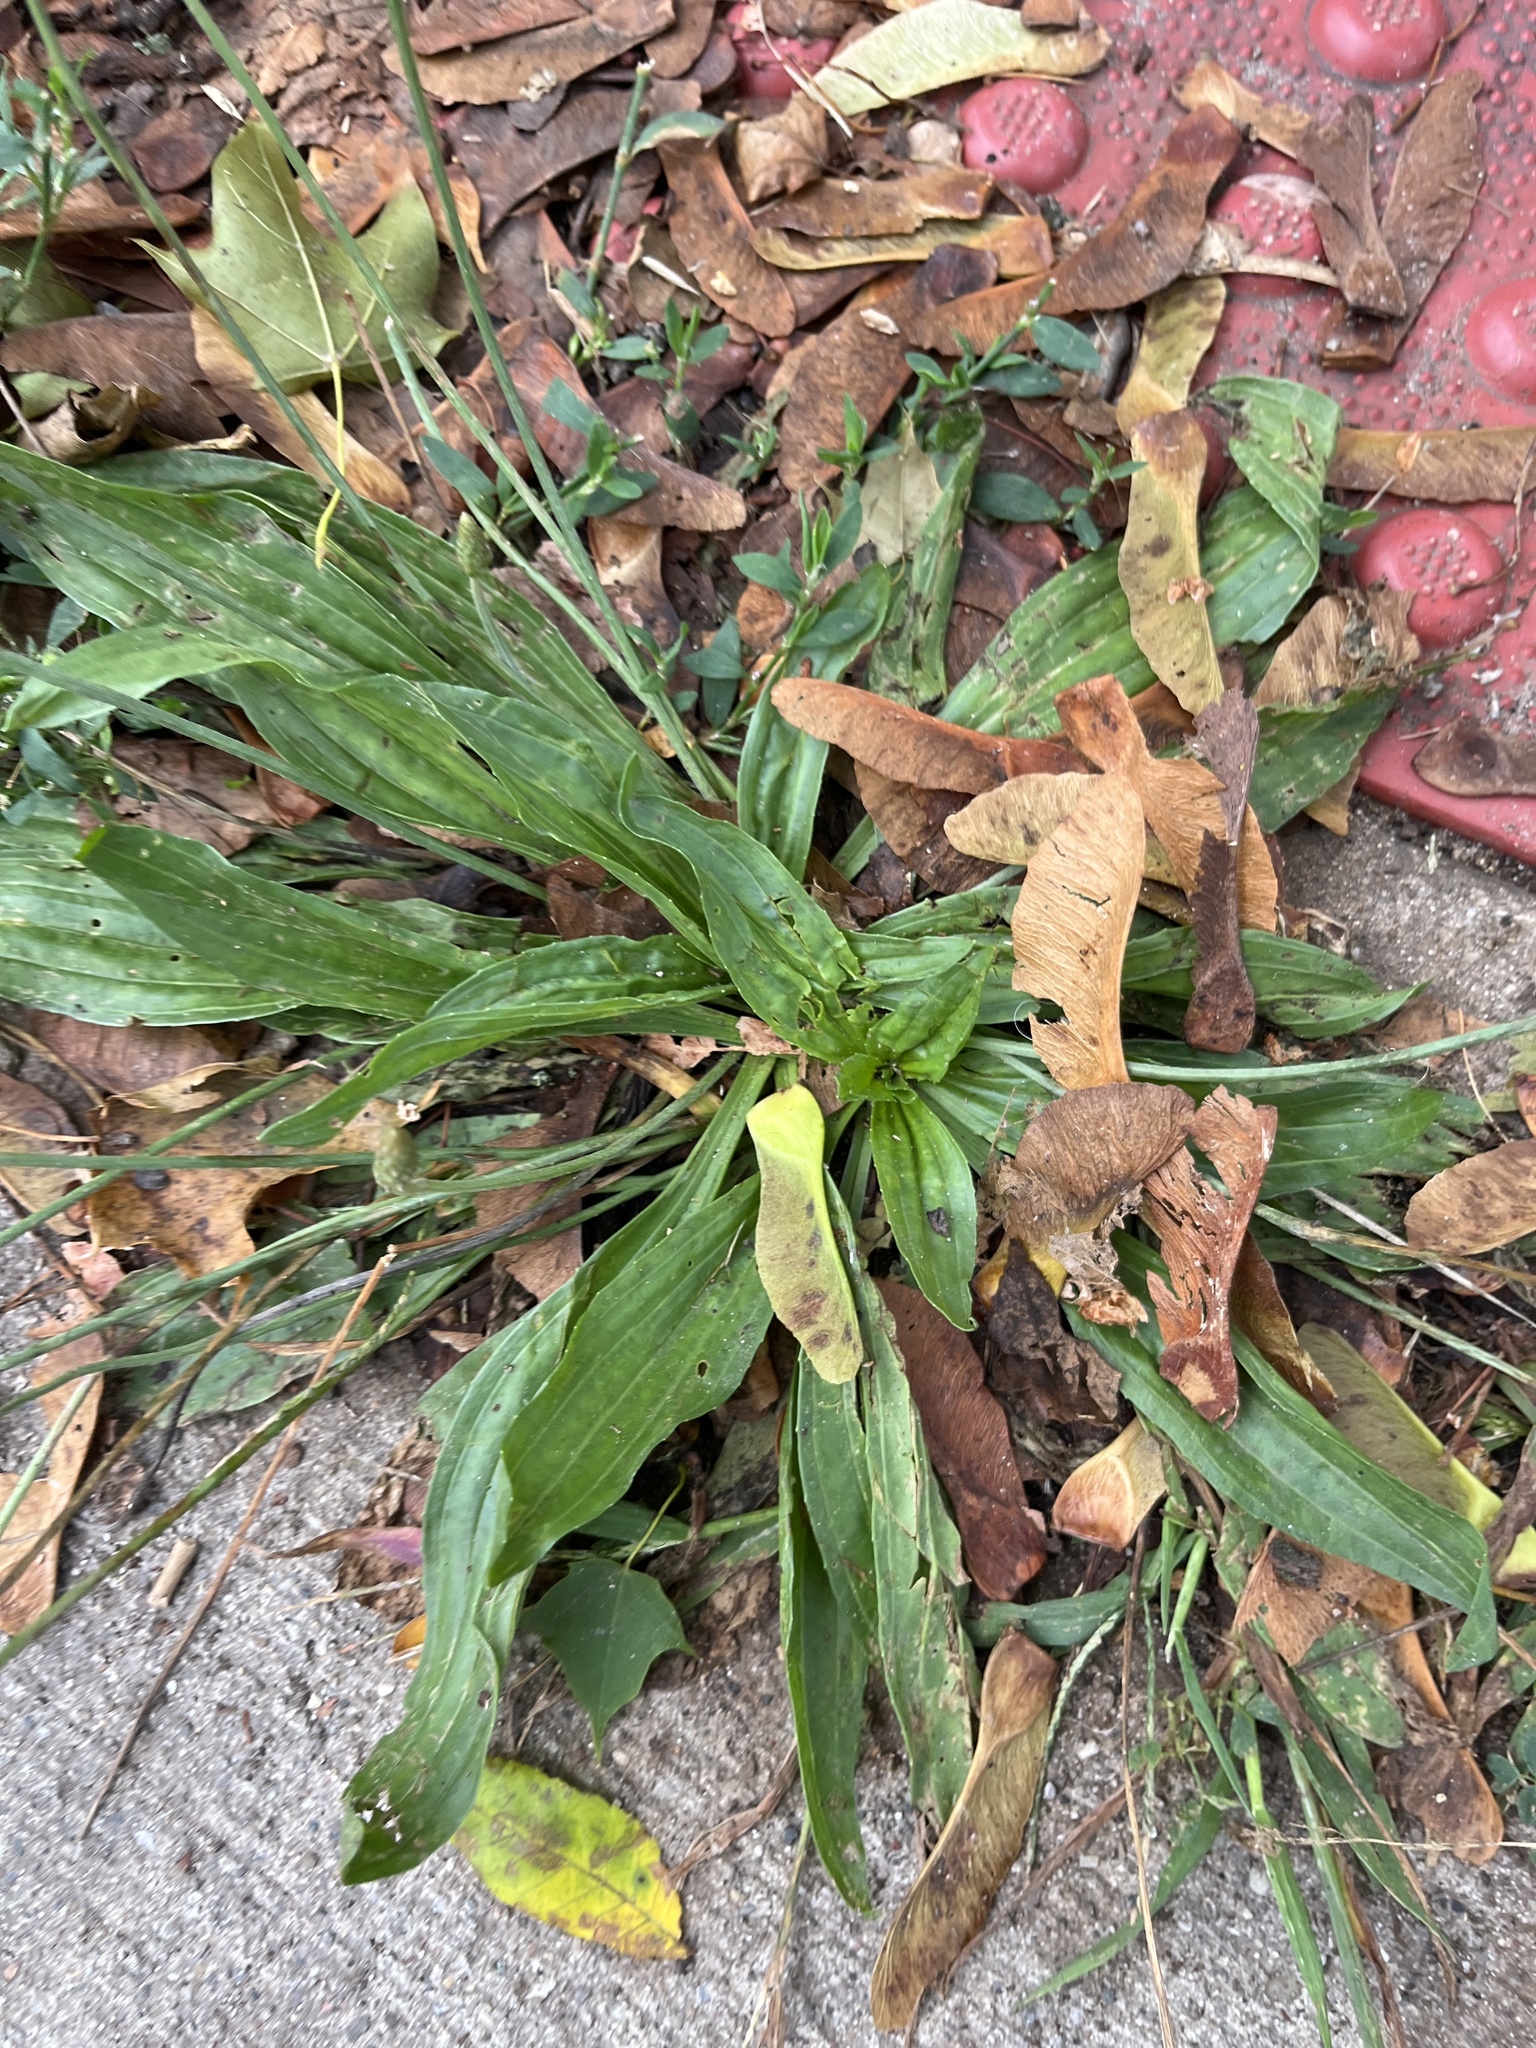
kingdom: Plantae
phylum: Tracheophyta
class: Magnoliopsida
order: Lamiales
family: Plantaginaceae
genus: Plantago
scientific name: Plantago lanceolata
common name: Ribwort plantain
